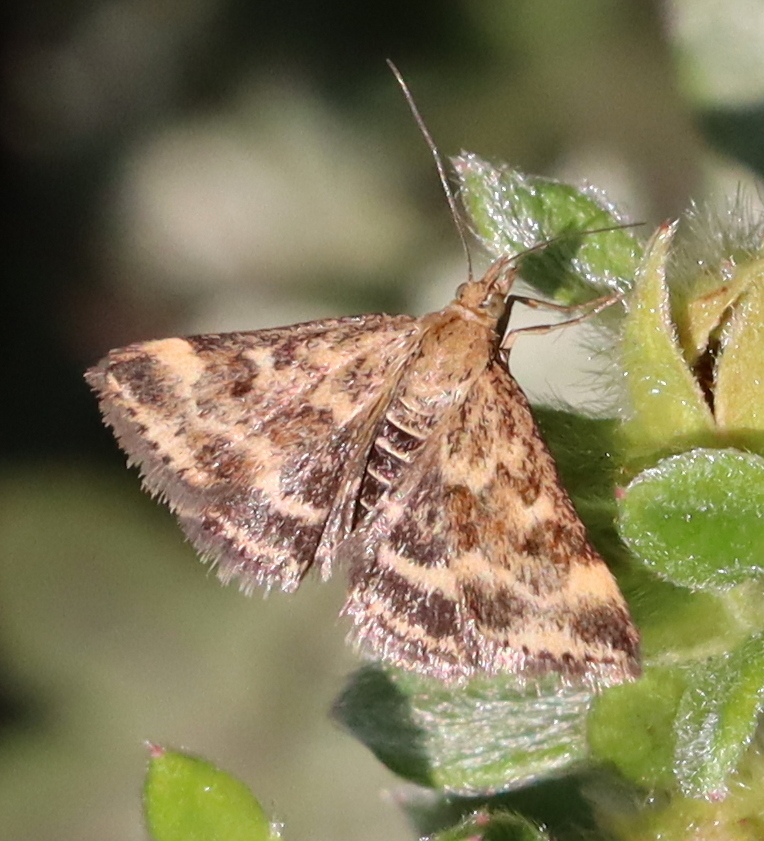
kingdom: Animalia
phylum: Arthropoda
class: Insecta
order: Lepidoptera
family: Crambidae
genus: Pyrausta
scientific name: Pyrausta despicata
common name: Straw-barred pearl
